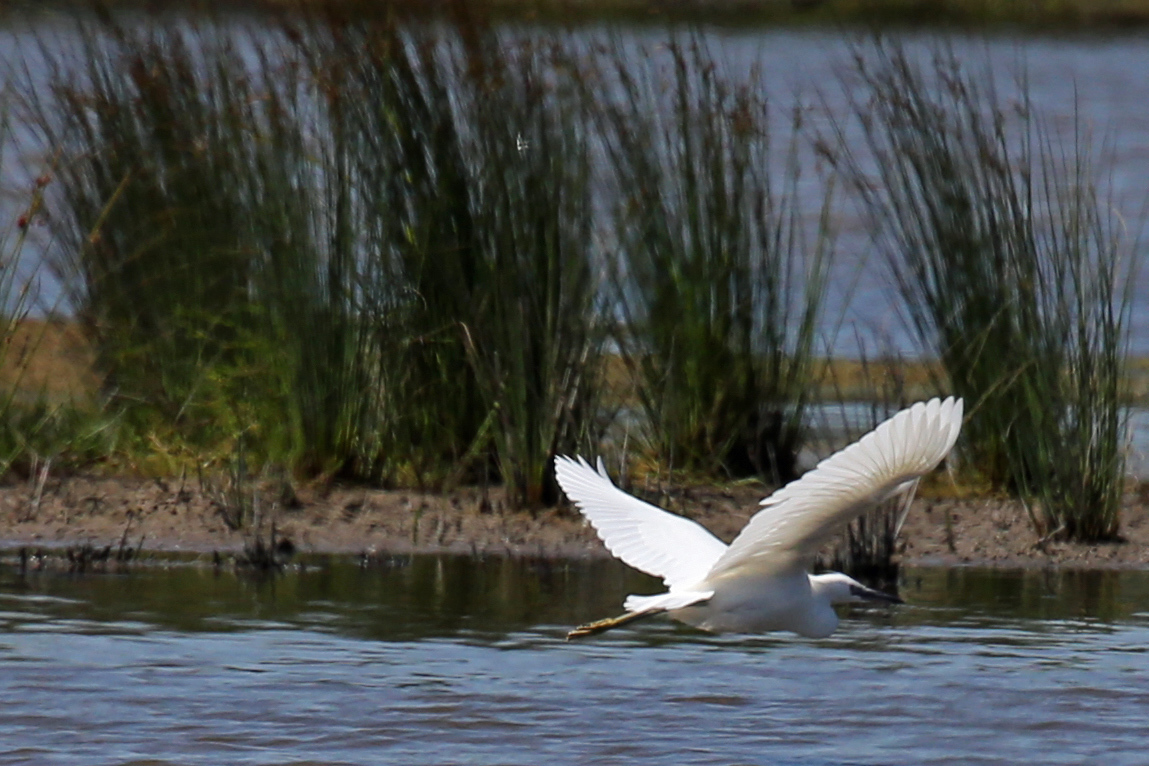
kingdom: Animalia
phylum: Chordata
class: Aves
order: Pelecaniformes
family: Ardeidae
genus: Egretta
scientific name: Egretta garzetta
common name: Little egret
